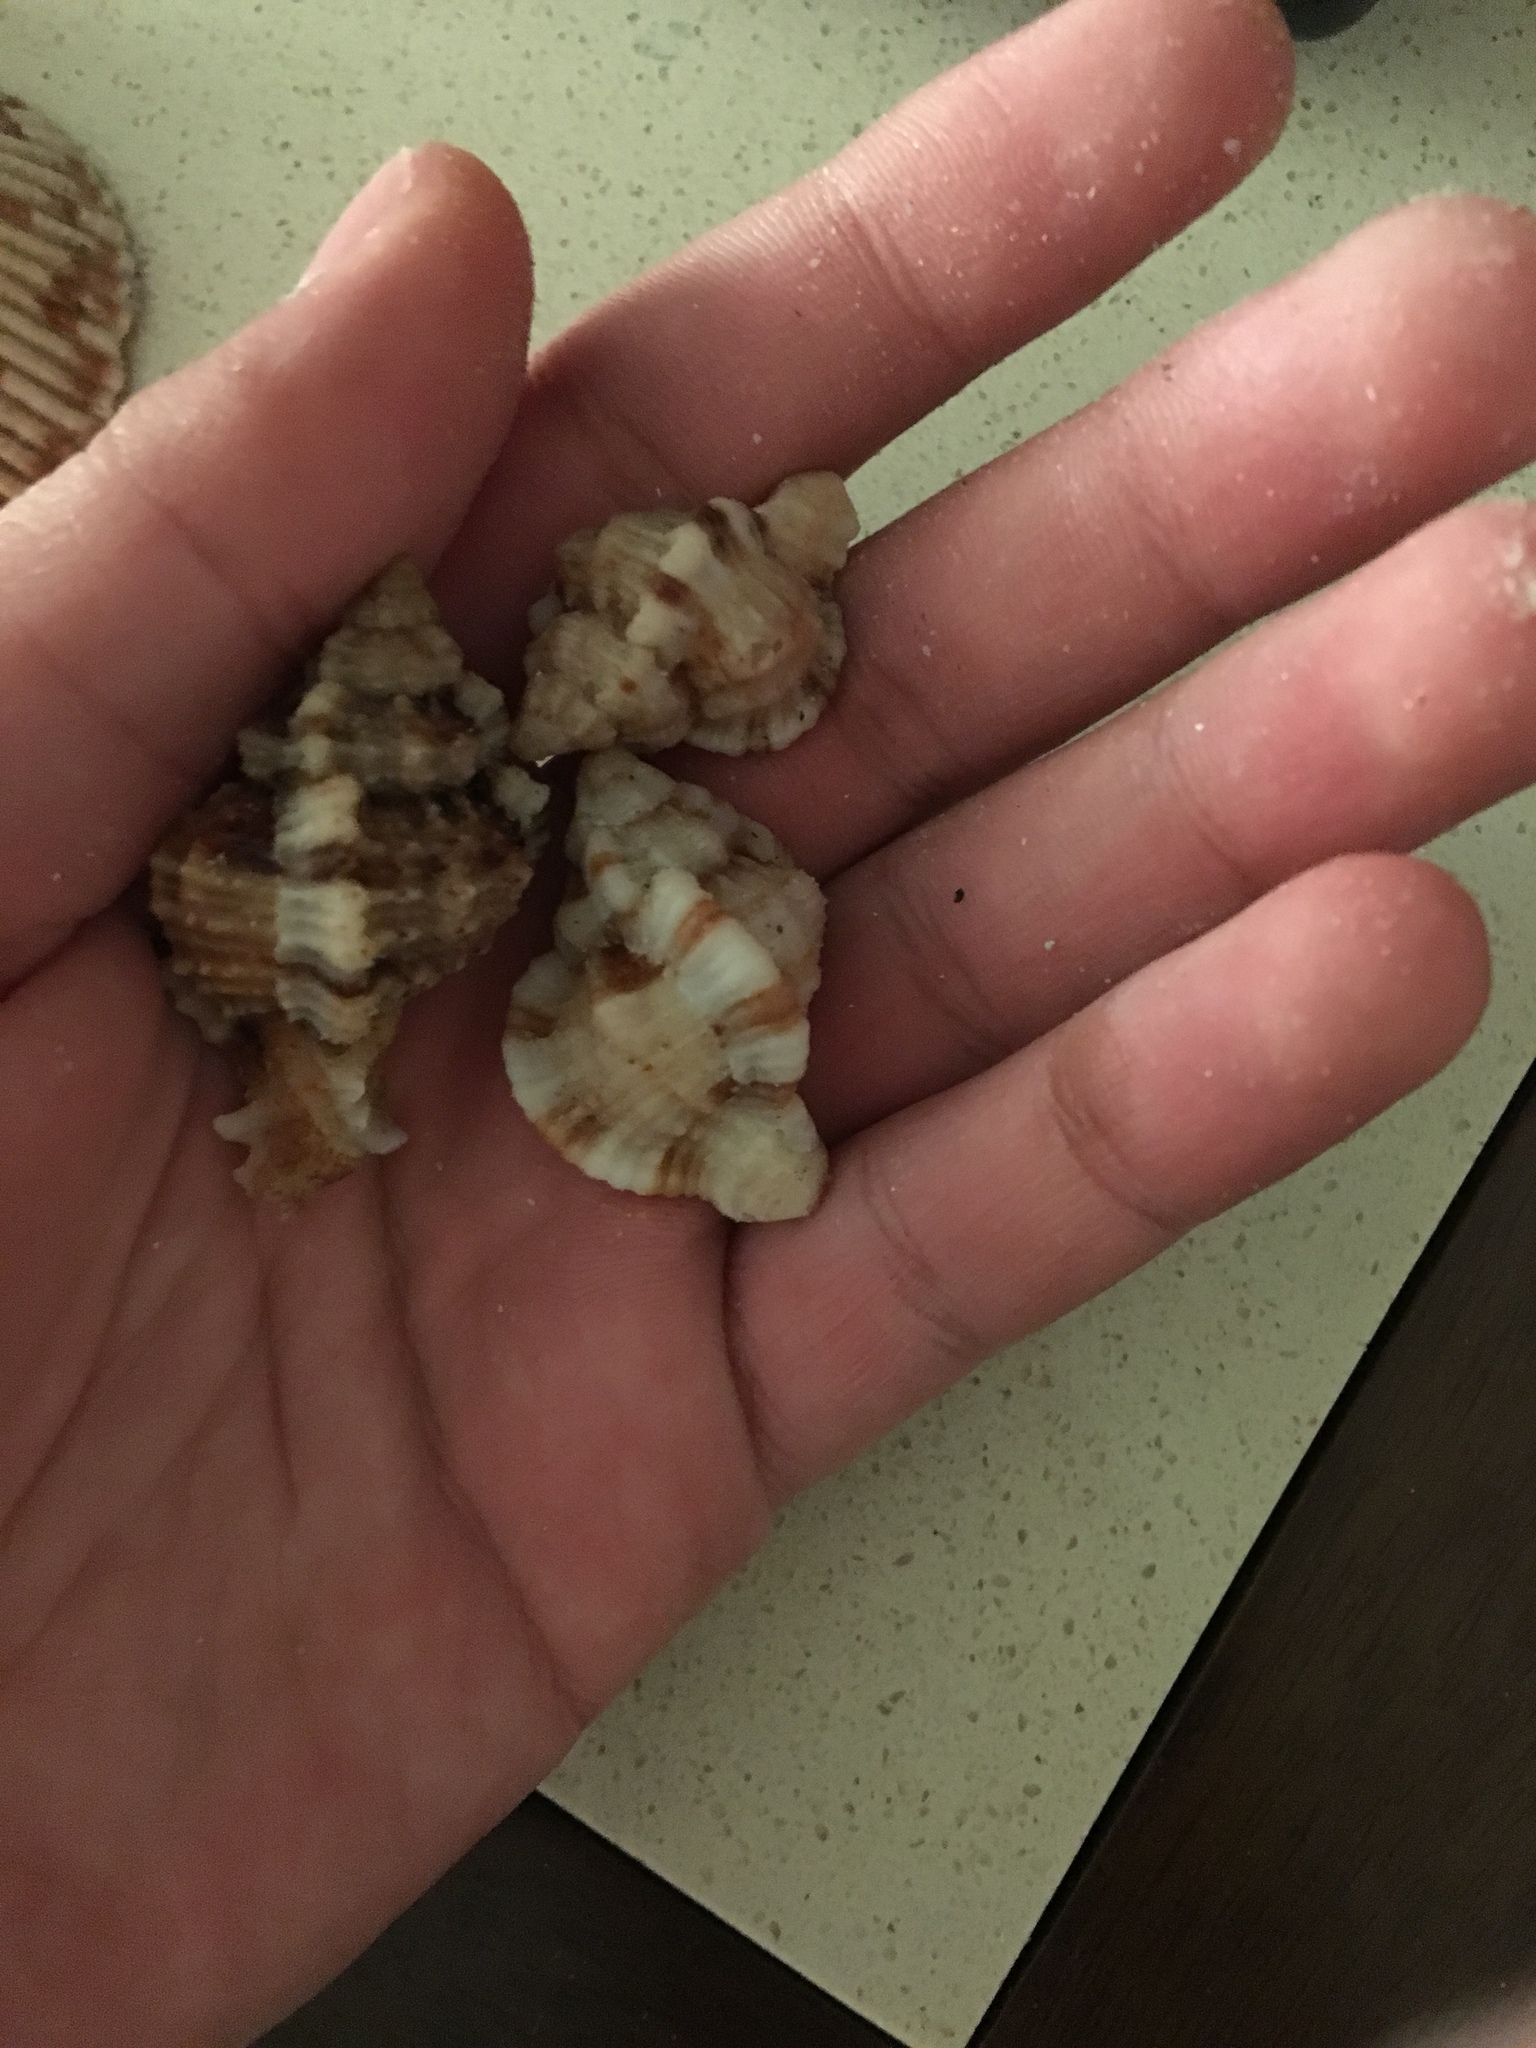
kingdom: Animalia
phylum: Mollusca
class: Gastropoda
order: Neogastropoda
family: Muricidae
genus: Phyllonotus
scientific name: Phyllonotus pomum
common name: Apple murex
